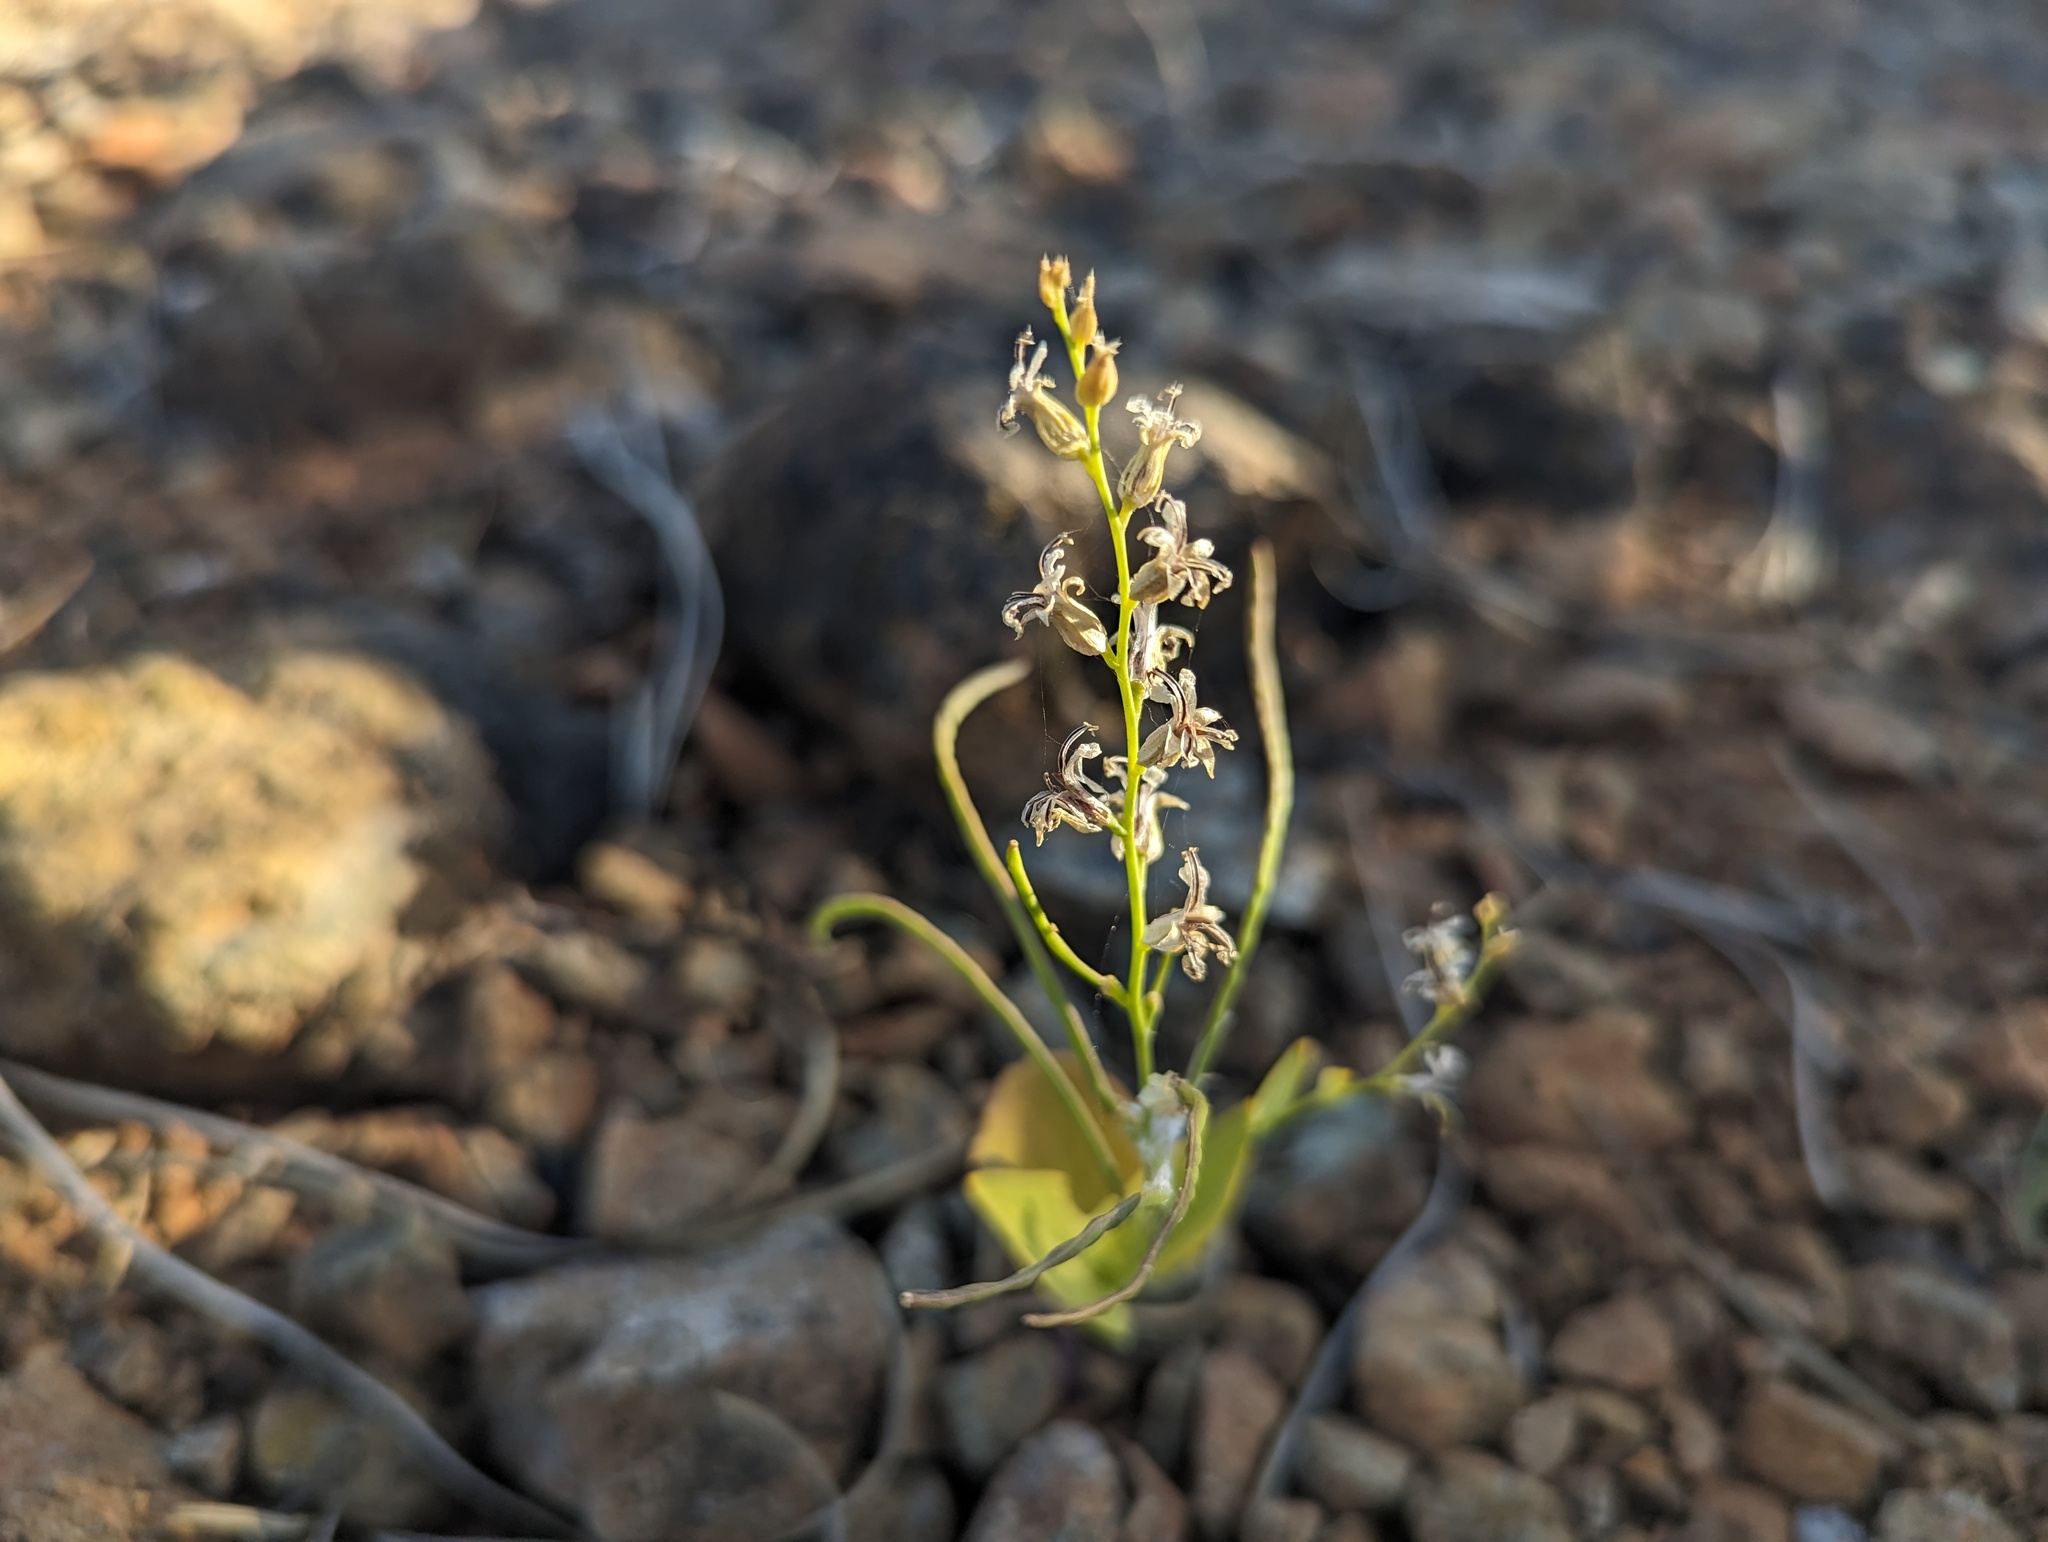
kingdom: Plantae
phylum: Tracheophyta
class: Magnoliopsida
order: Brassicales
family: Brassicaceae
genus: Streptanthus
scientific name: Streptanthus drepanoides
